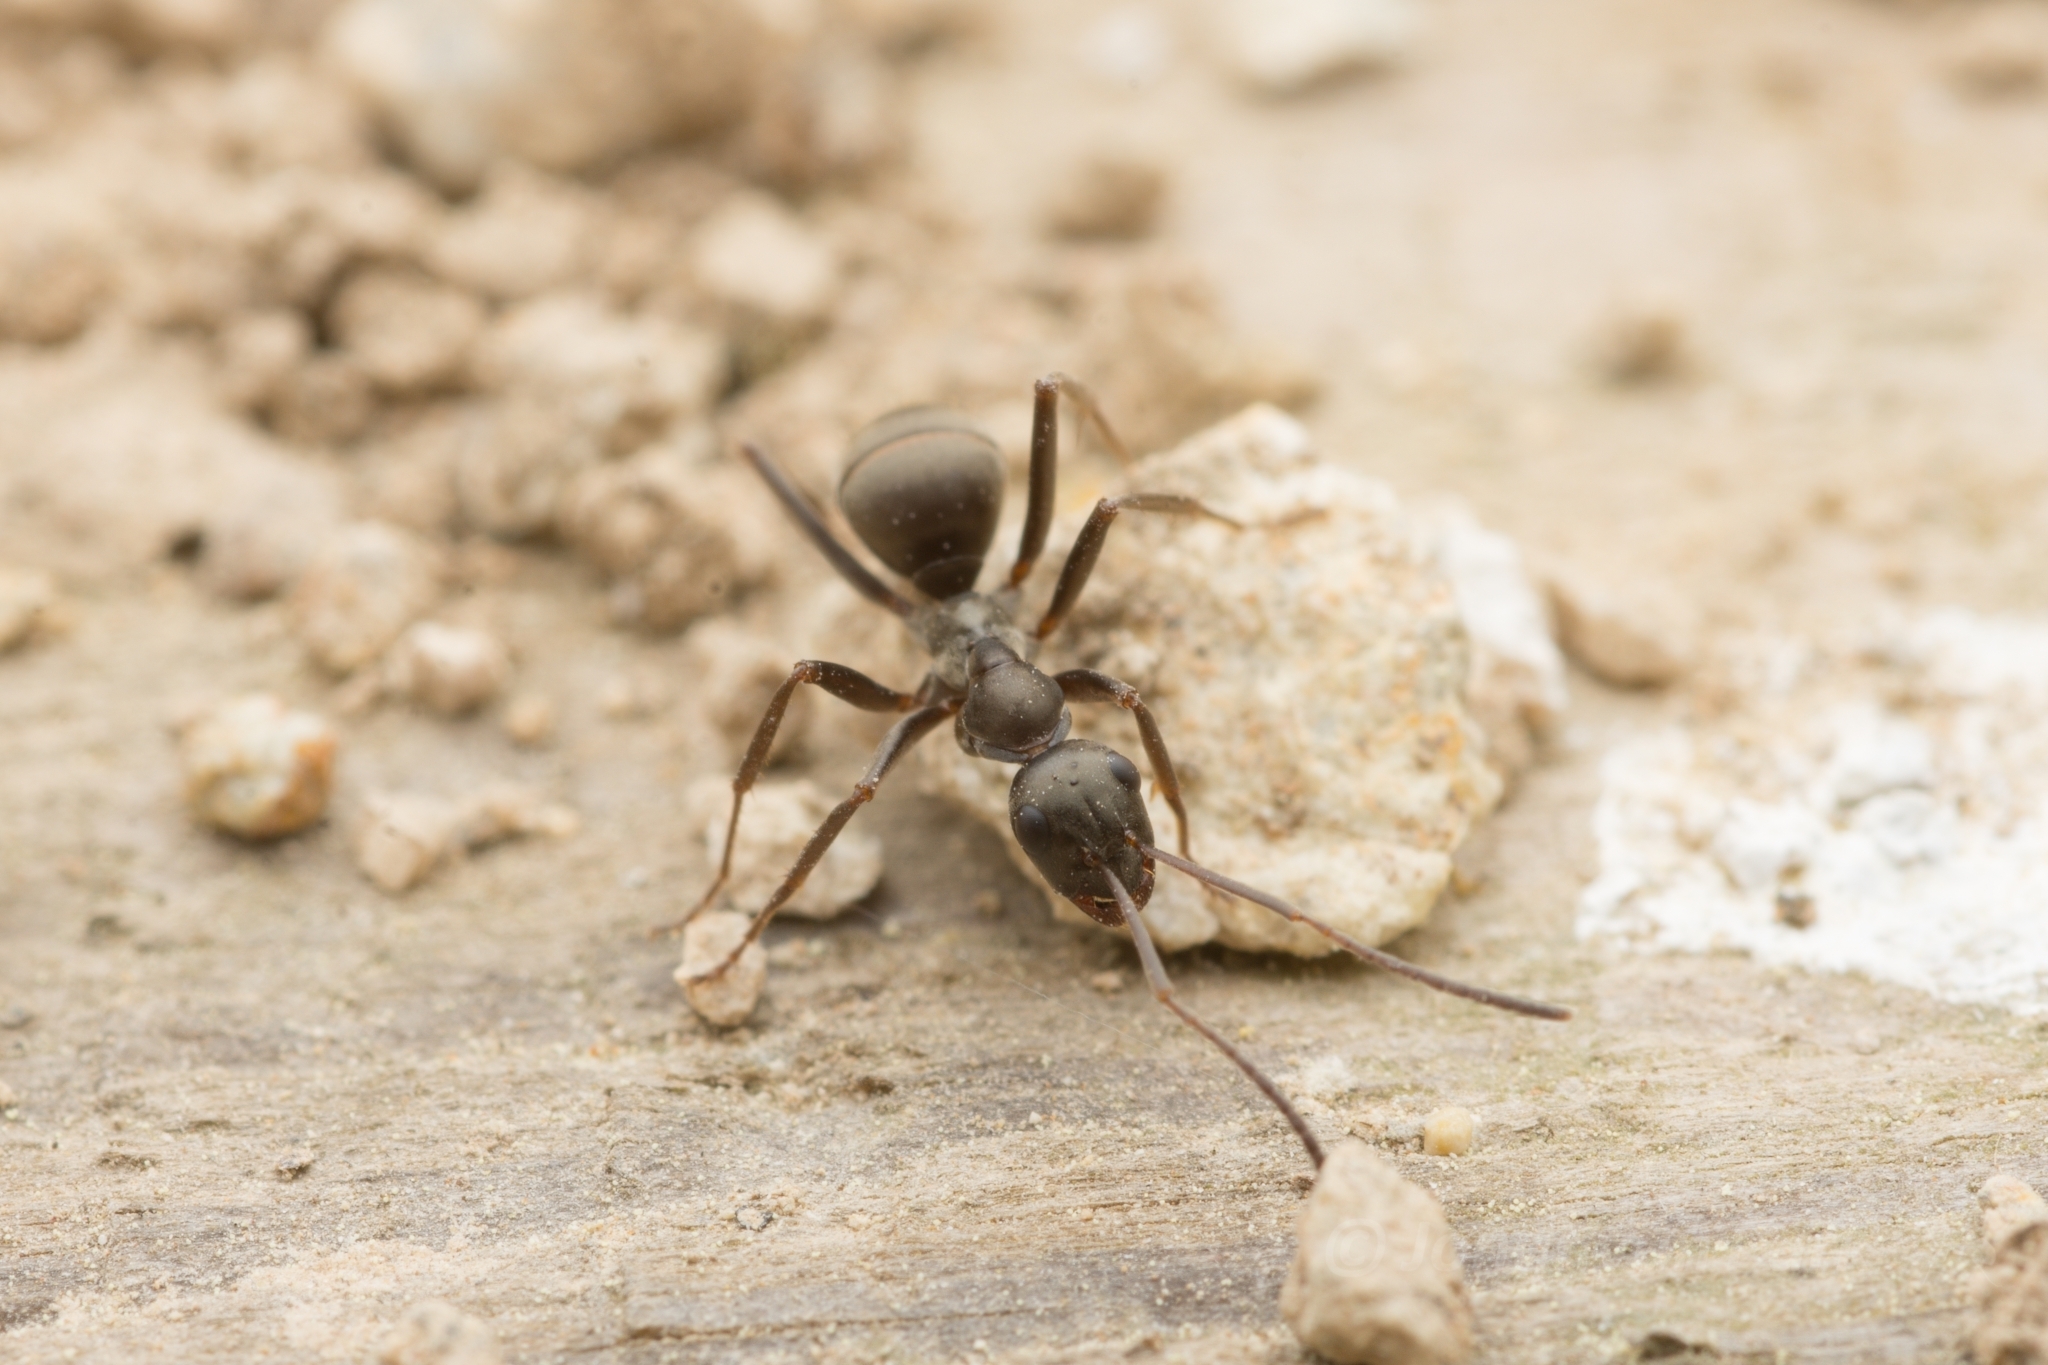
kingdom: Animalia
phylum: Arthropoda
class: Insecta
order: Hymenoptera
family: Formicidae
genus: Formica
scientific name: Formica hayashi
